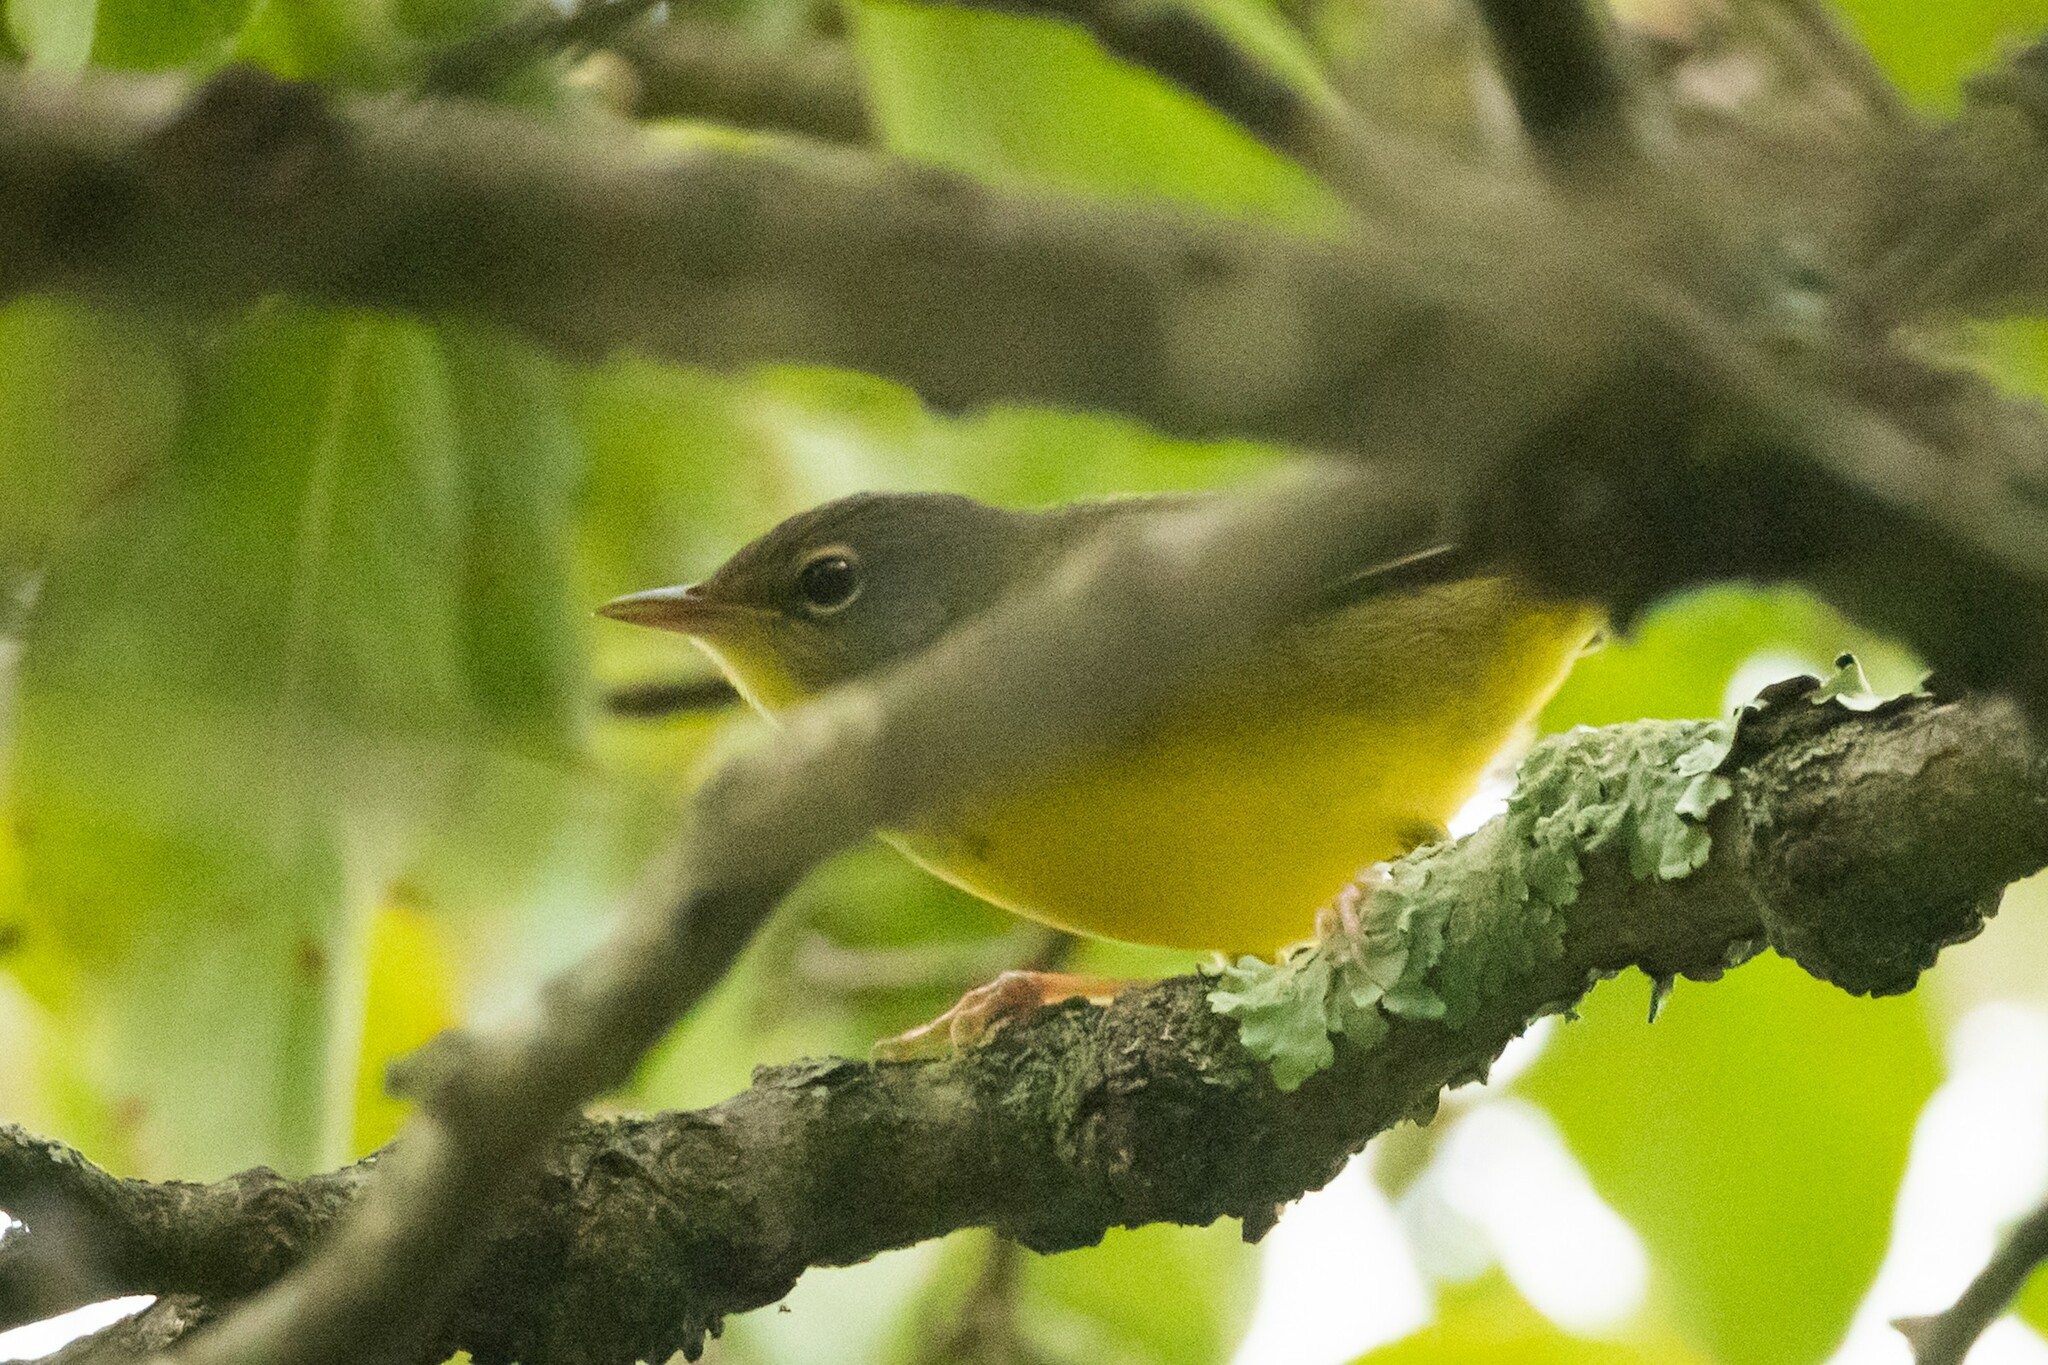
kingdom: Animalia
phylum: Chordata
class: Aves
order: Passeriformes
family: Parulidae
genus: Geothlypis
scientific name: Geothlypis philadelphia
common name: Mourning warbler
